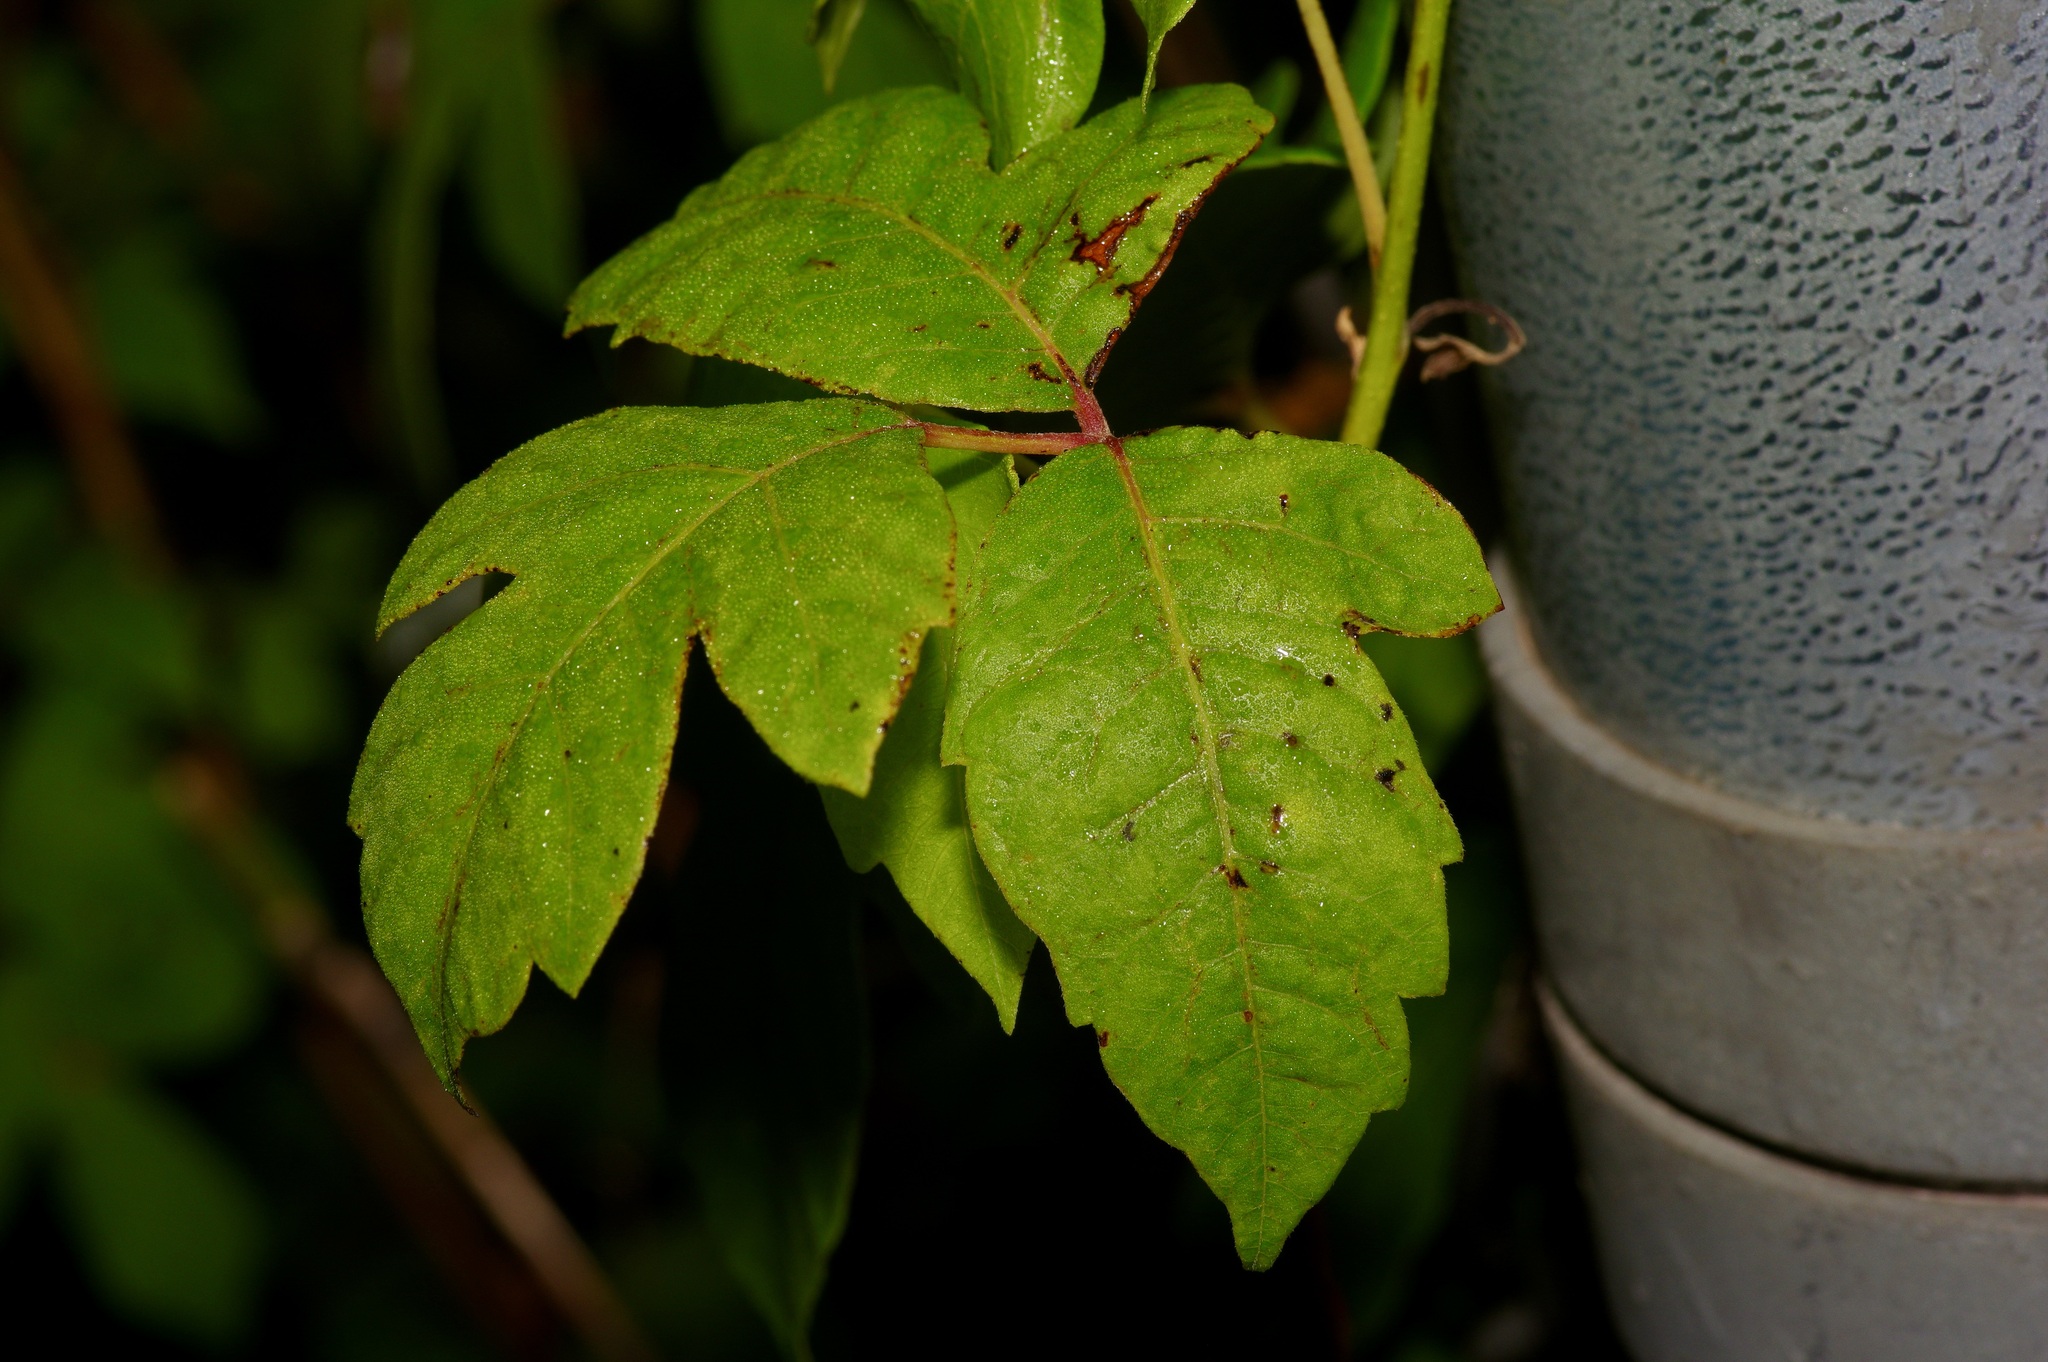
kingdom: Plantae
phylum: Tracheophyta
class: Magnoliopsida
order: Sapindales
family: Anacardiaceae
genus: Toxicodendron
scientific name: Toxicodendron radicans
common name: Poison ivy
